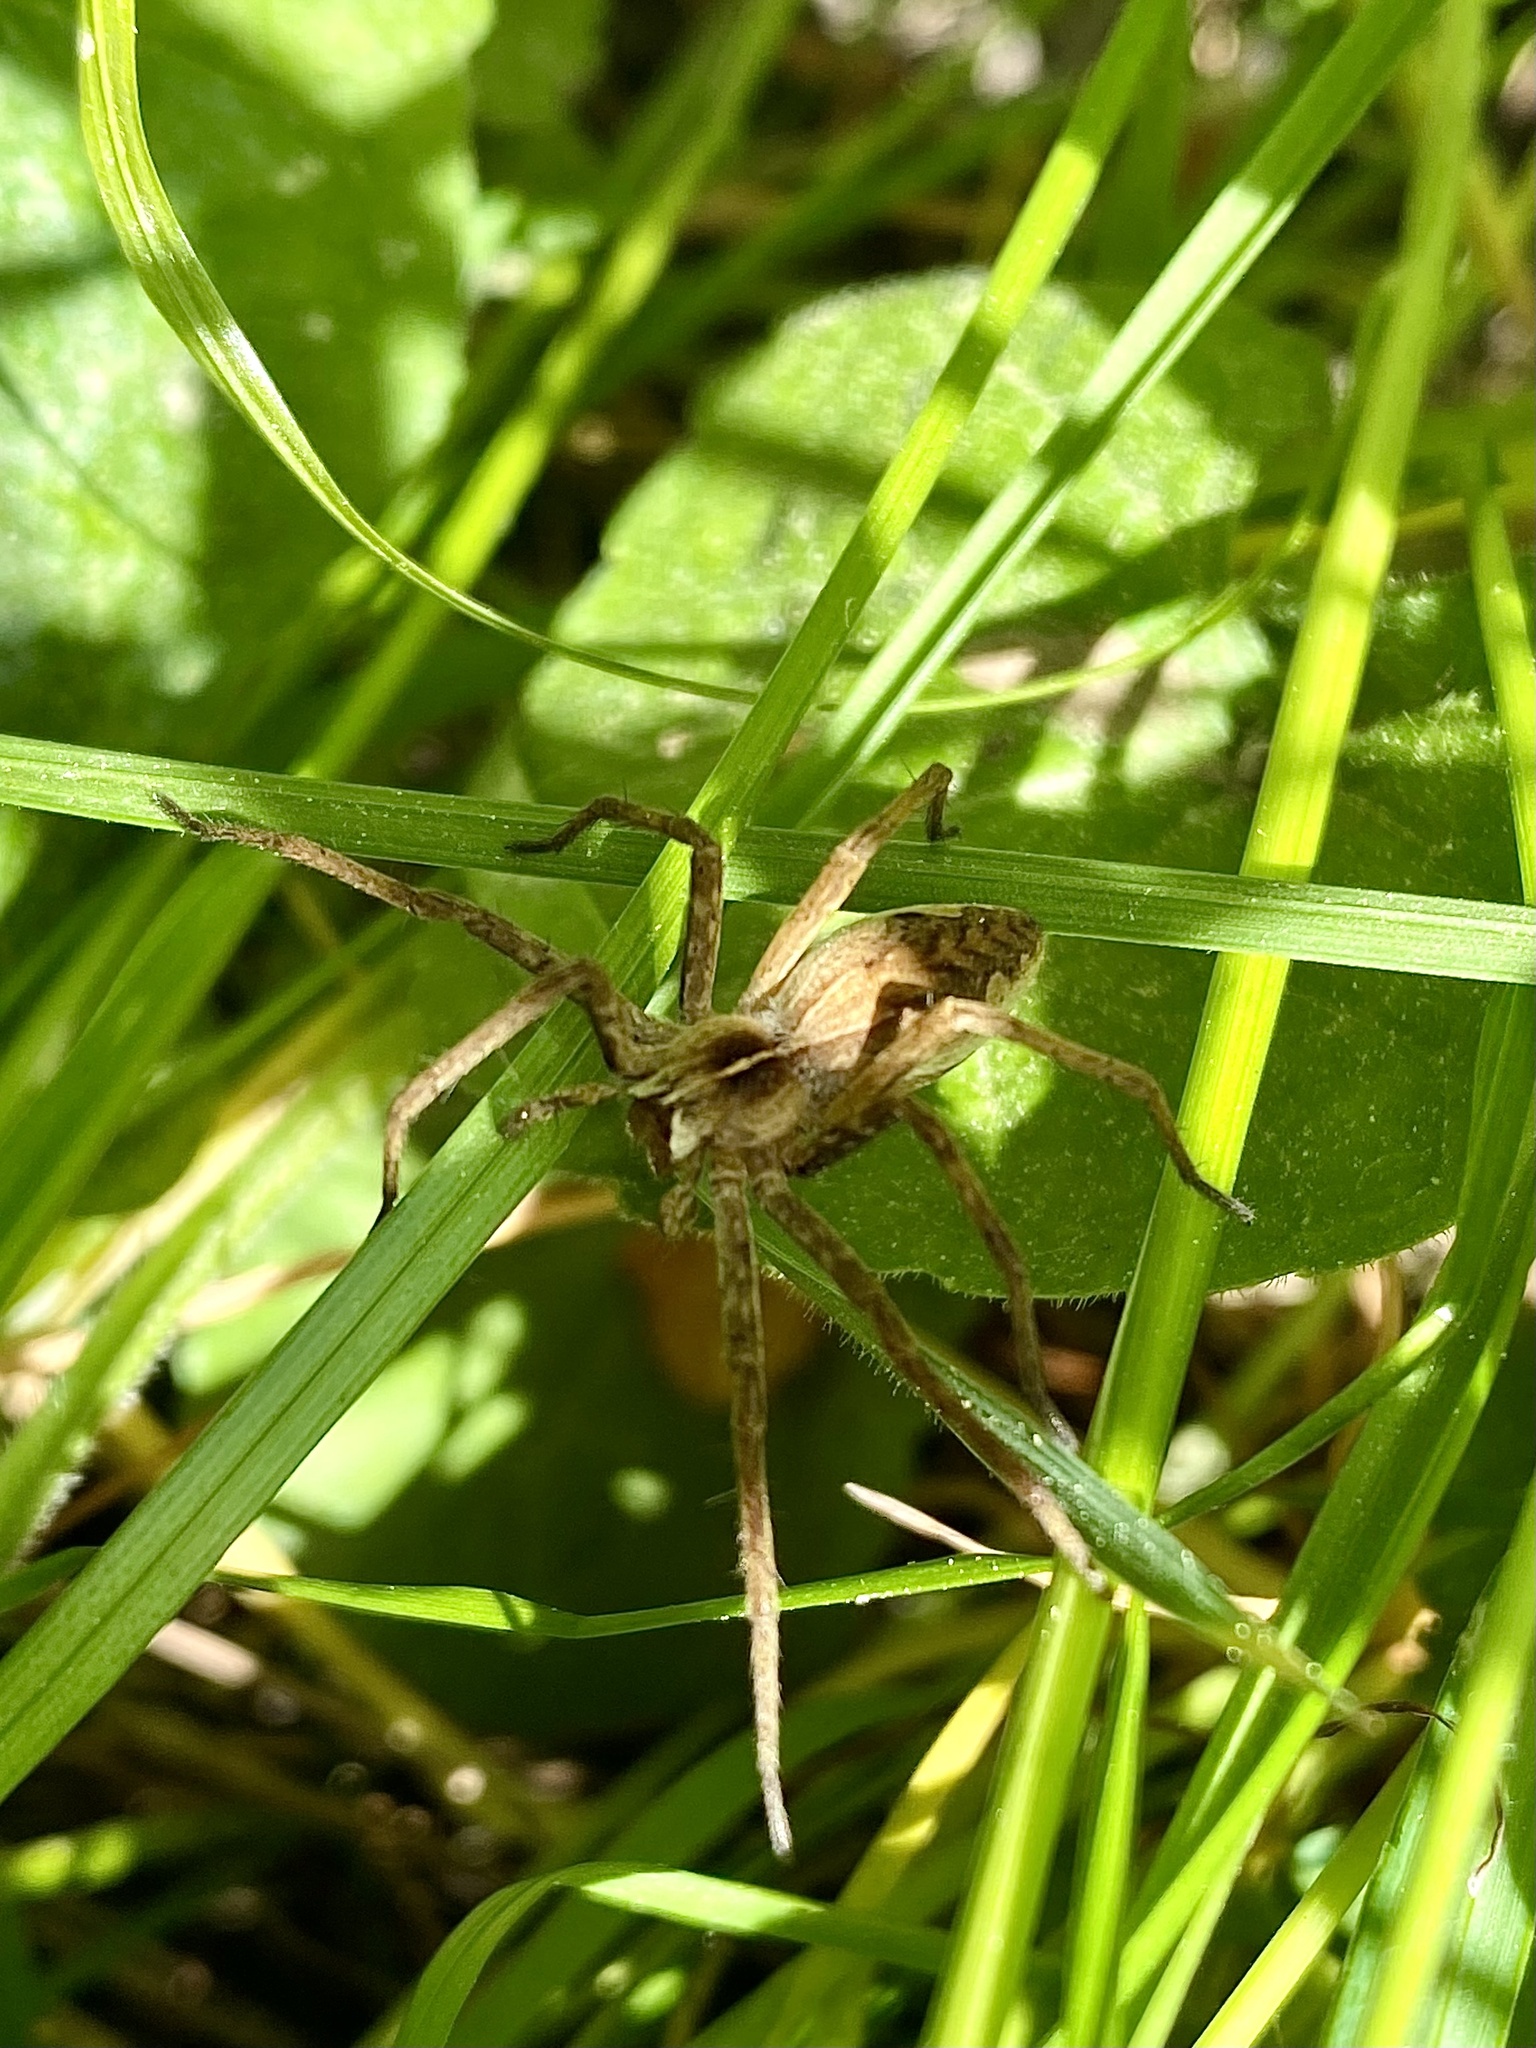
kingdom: Animalia
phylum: Arthropoda
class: Arachnida
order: Araneae
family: Pisauridae
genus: Pisaura
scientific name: Pisaura
